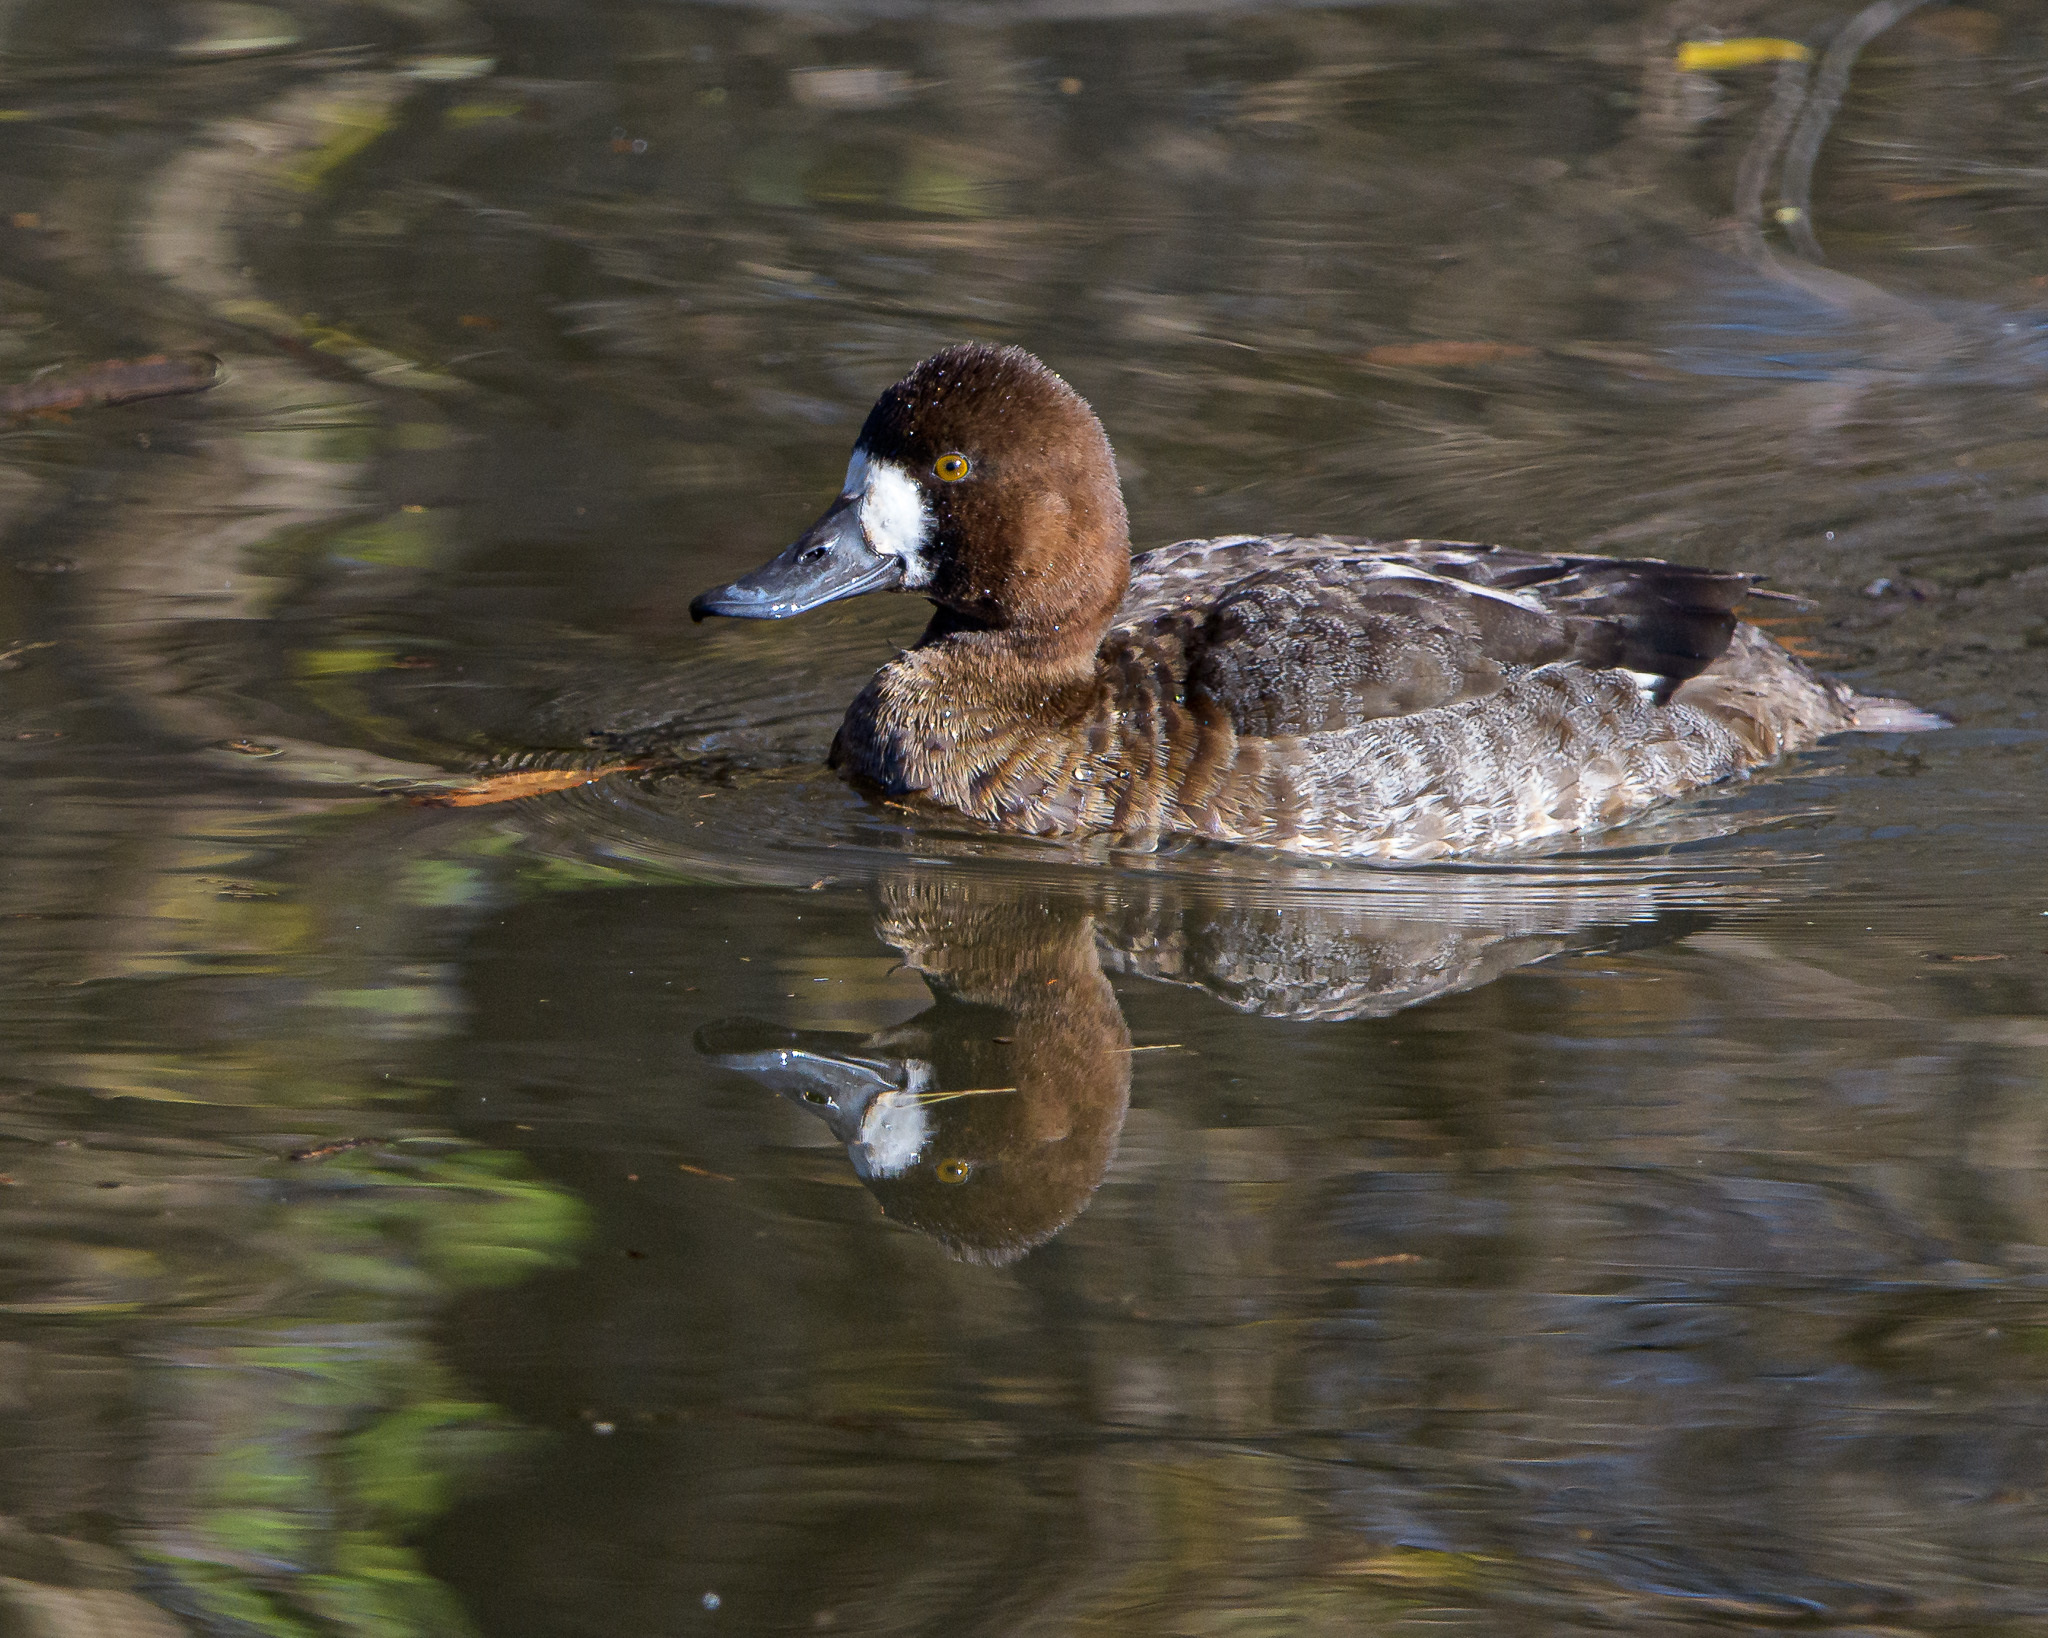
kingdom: Animalia
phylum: Chordata
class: Aves
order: Anseriformes
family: Anatidae
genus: Aythya
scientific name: Aythya affinis
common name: Lesser scaup
